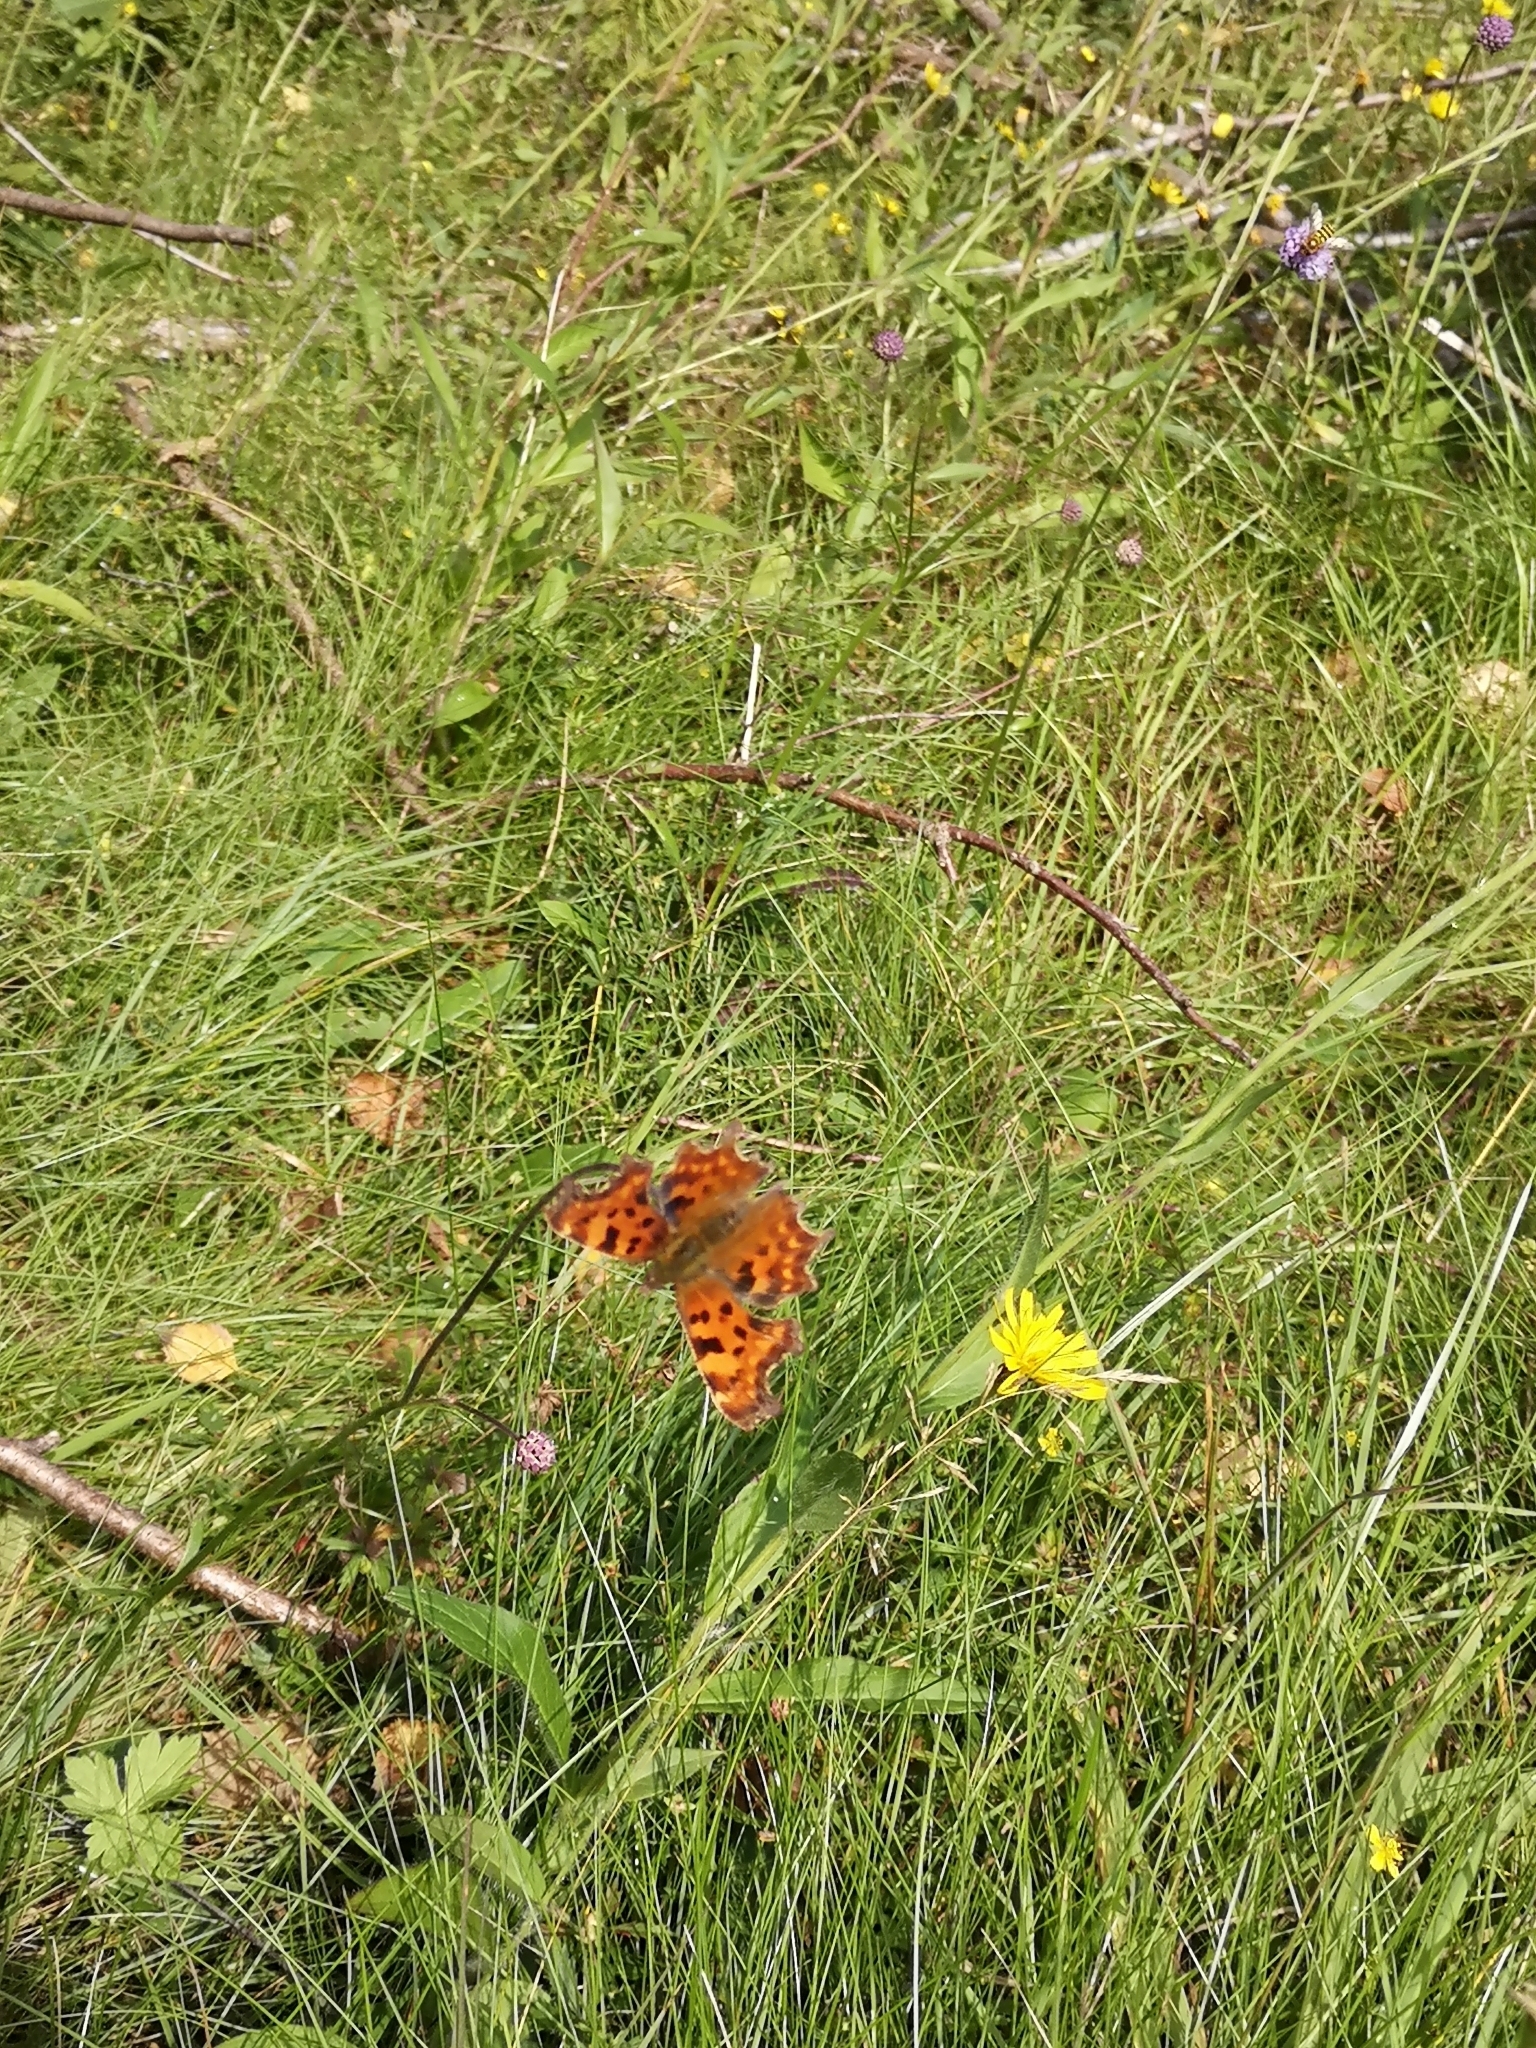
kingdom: Animalia
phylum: Arthropoda
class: Insecta
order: Lepidoptera
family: Nymphalidae
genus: Polygonia
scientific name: Polygonia c-album
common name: Comma
